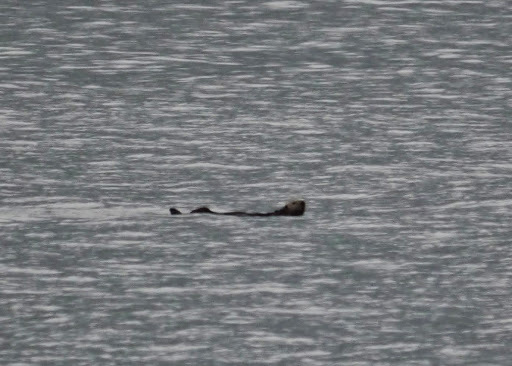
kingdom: Animalia
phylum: Chordata
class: Mammalia
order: Carnivora
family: Mustelidae
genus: Enhydra
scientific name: Enhydra lutris
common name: Sea otter
